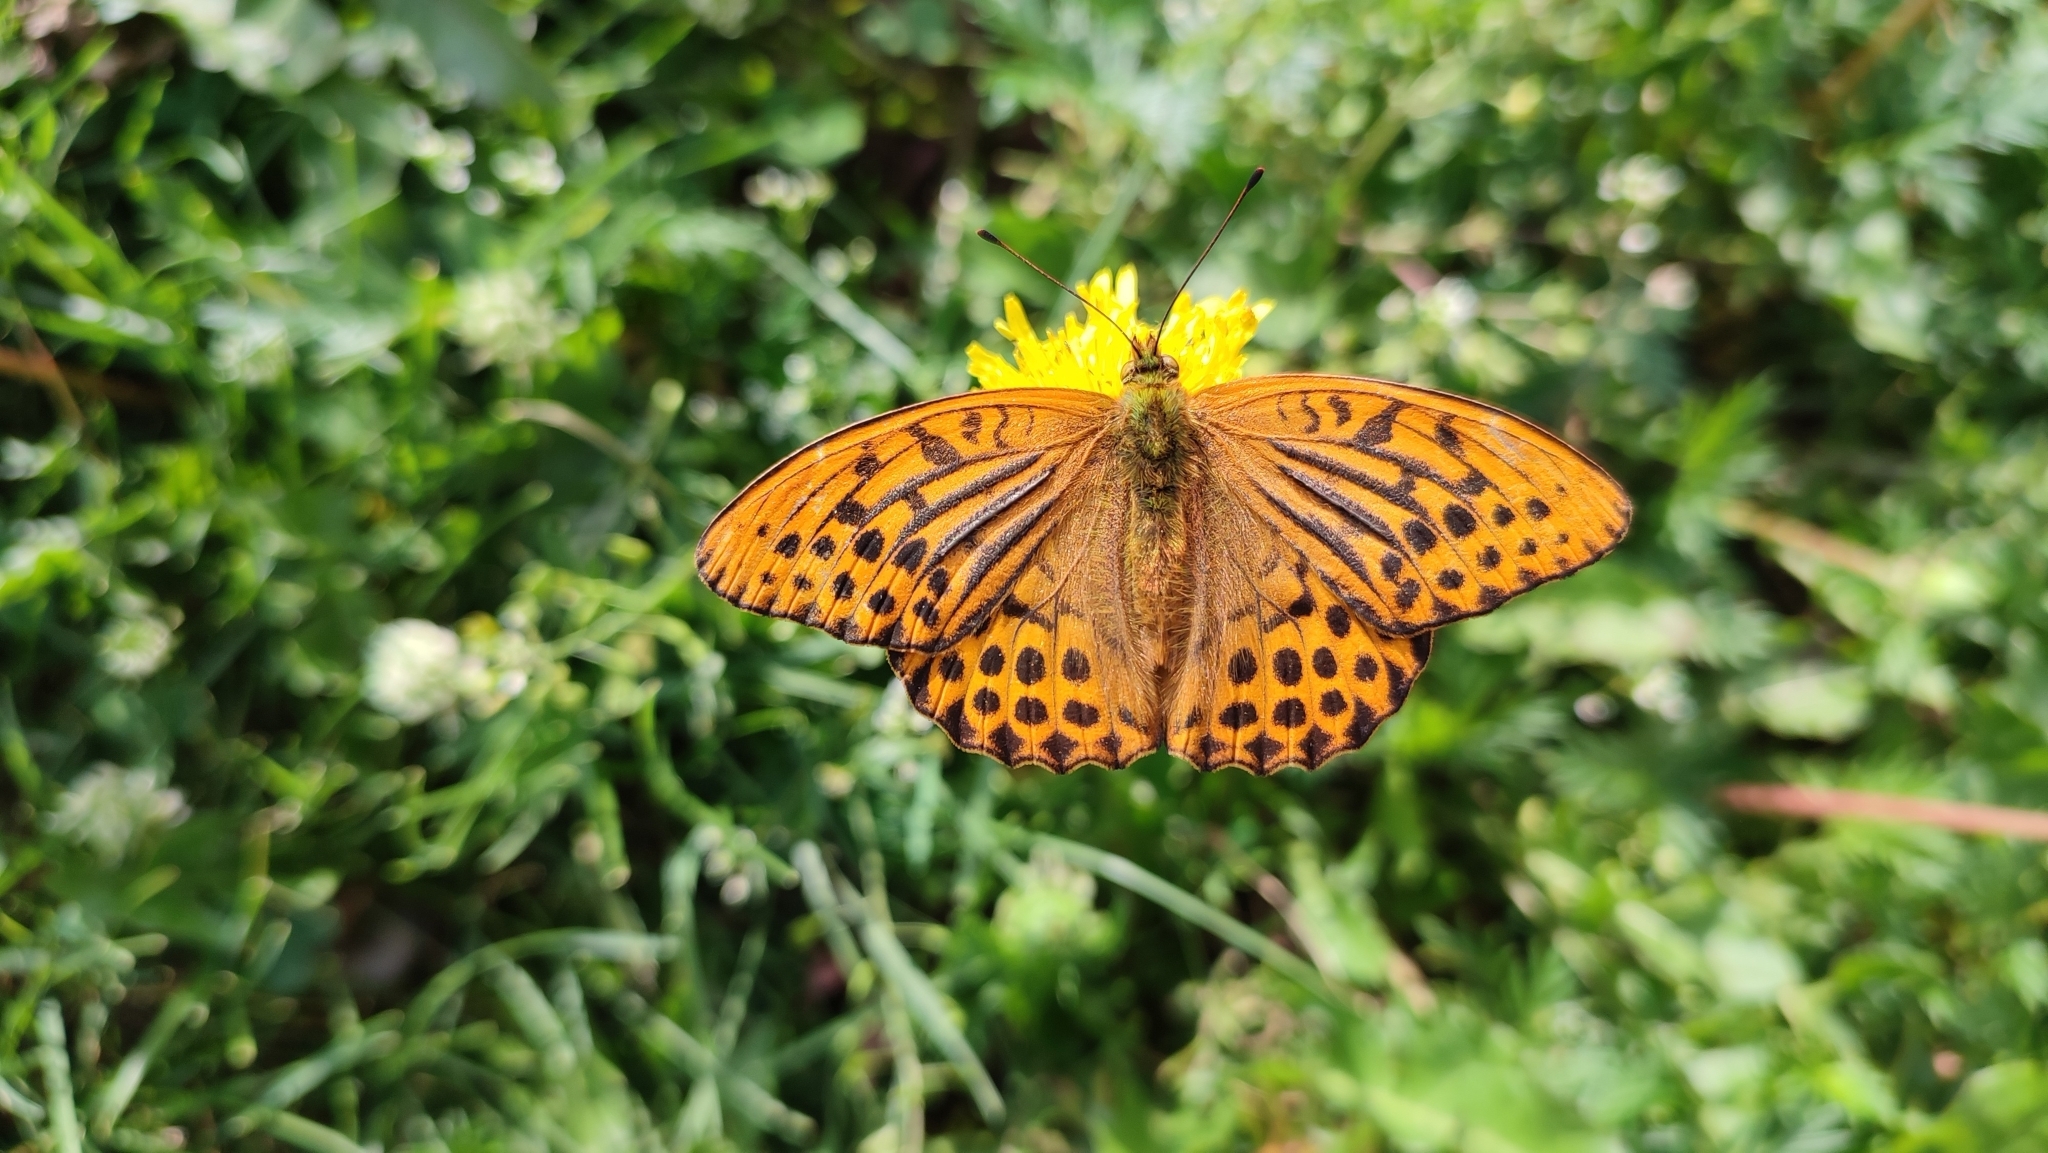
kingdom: Animalia
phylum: Arthropoda
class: Insecta
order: Lepidoptera
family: Nymphalidae
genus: Argynnis
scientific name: Argynnis paphia
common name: Silver-washed fritillary
